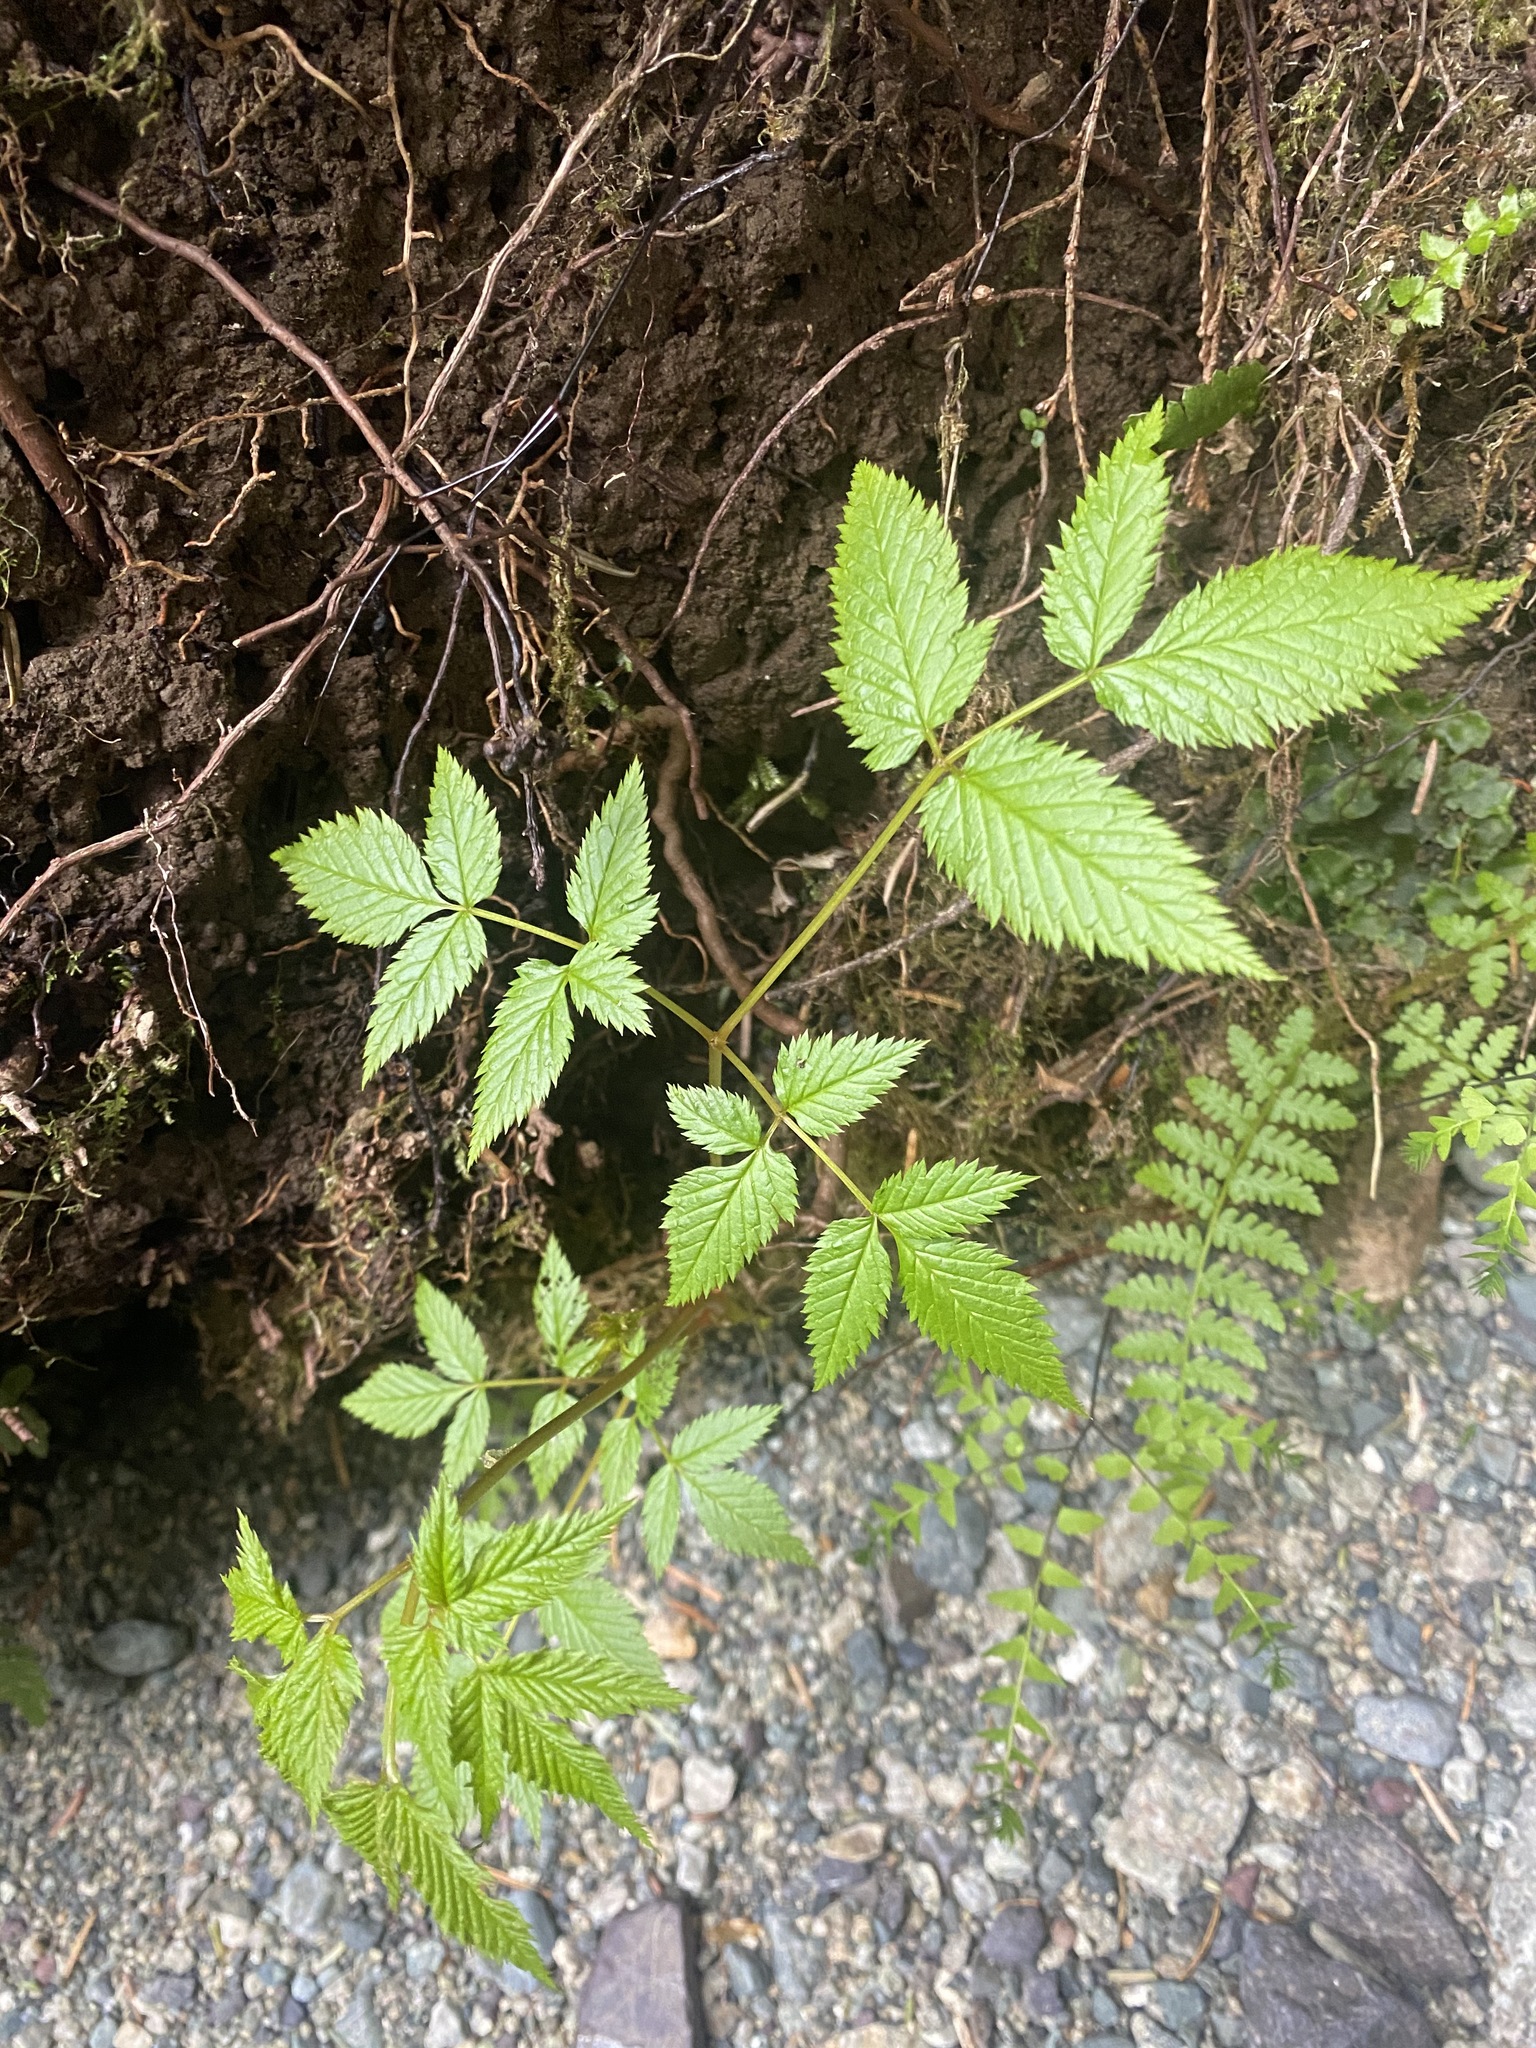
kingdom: Plantae
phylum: Tracheophyta
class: Magnoliopsida
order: Rosales
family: Rosaceae
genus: Aruncus
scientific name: Aruncus dioicus
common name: Buck's-beard
